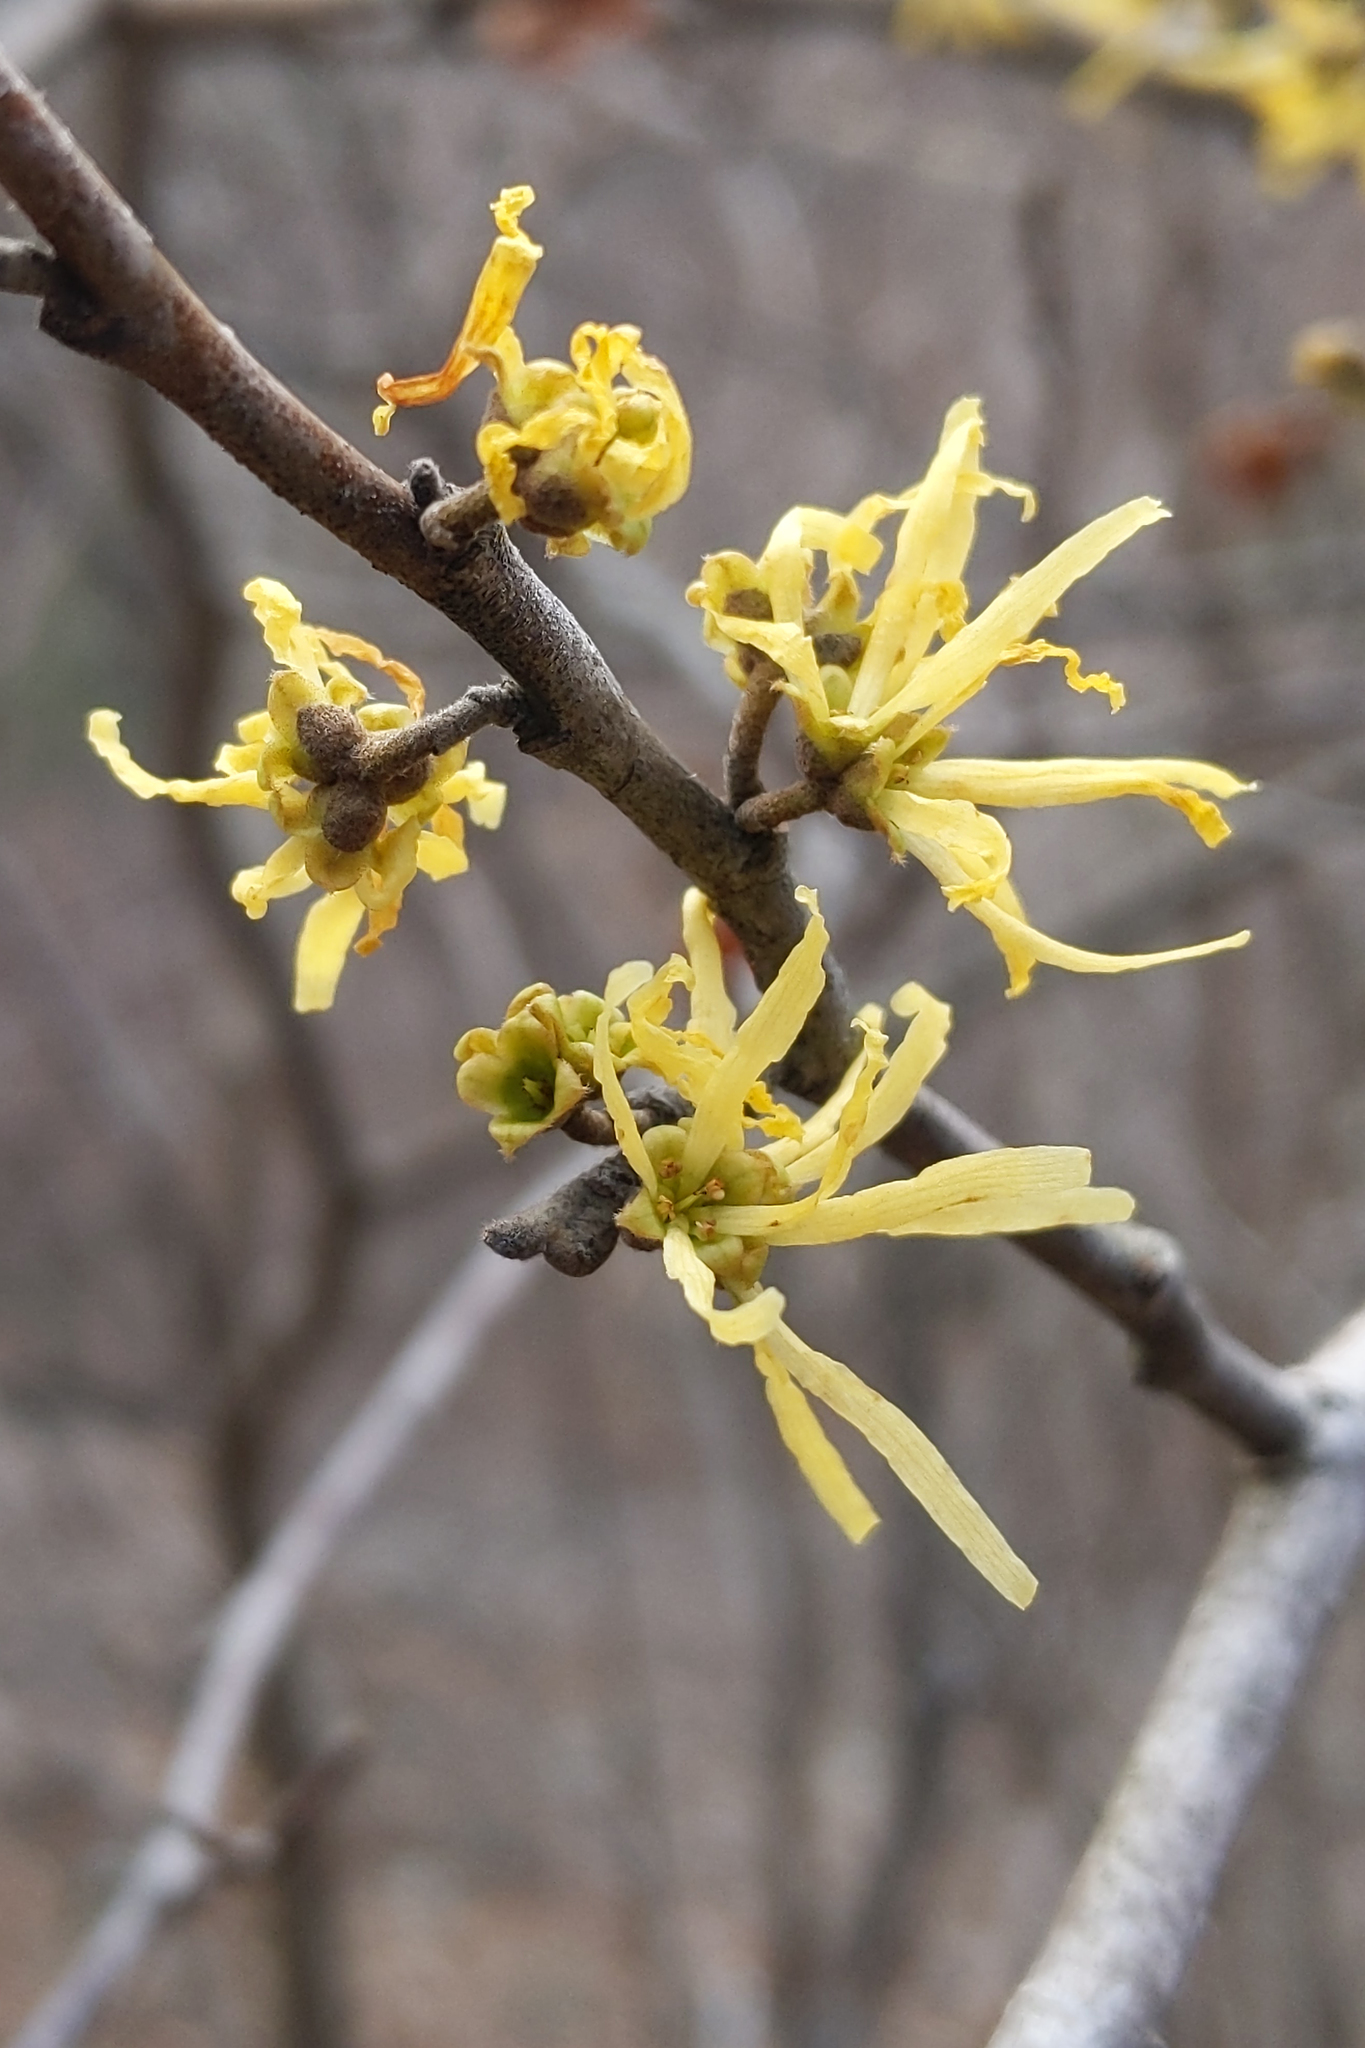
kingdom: Plantae
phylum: Tracheophyta
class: Magnoliopsida
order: Saxifragales
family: Hamamelidaceae
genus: Hamamelis
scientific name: Hamamelis virginiana
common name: Witch-hazel
